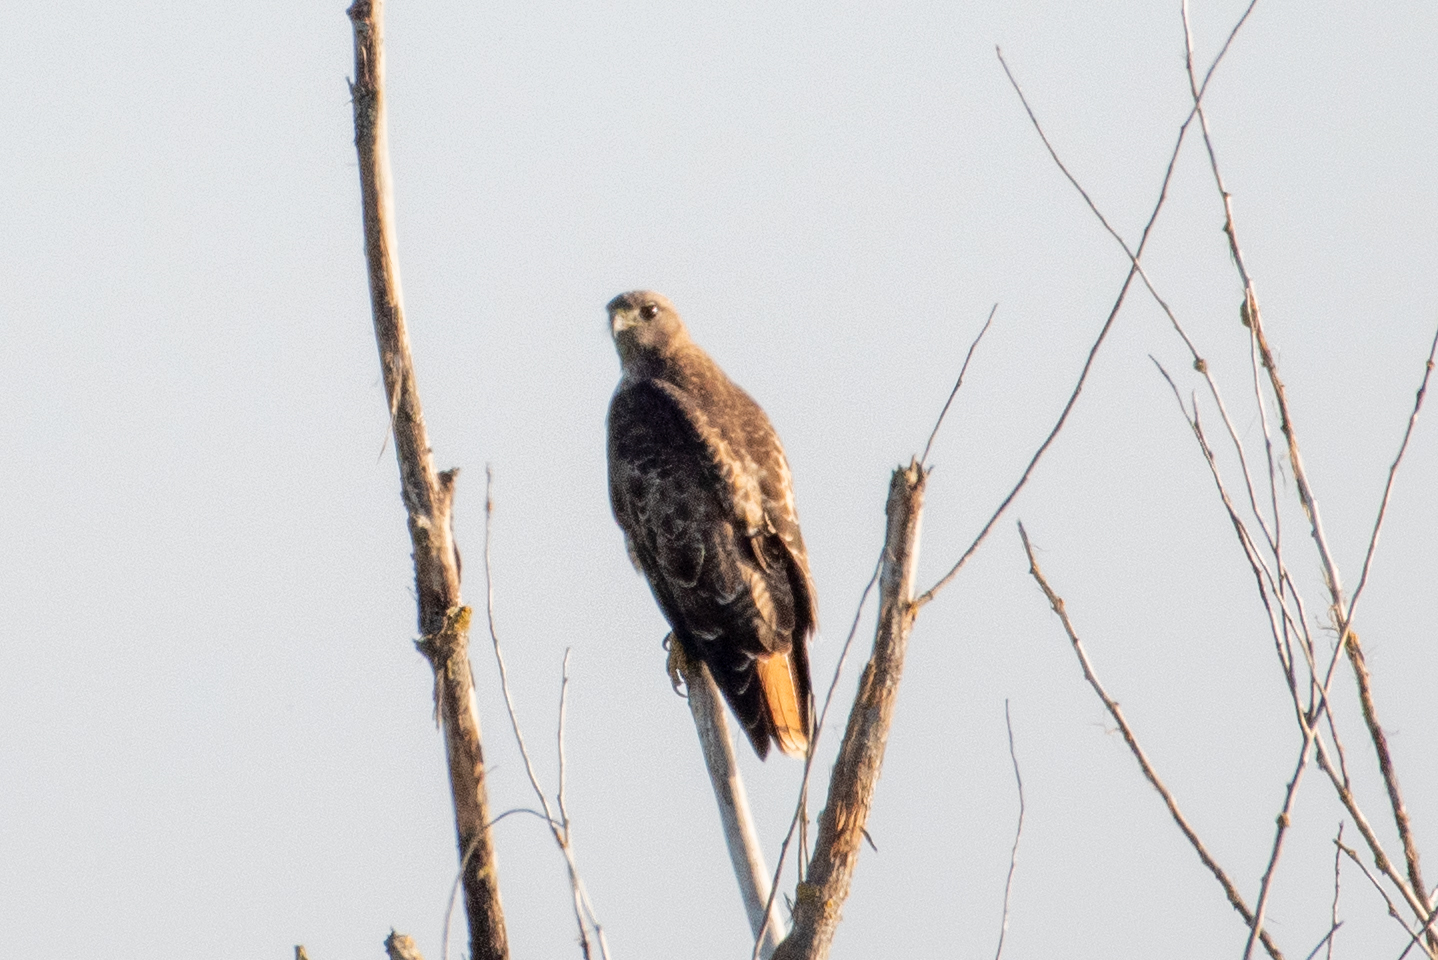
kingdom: Animalia
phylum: Chordata
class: Aves
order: Accipitriformes
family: Accipitridae
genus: Buteo
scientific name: Buteo jamaicensis
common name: Red-tailed hawk
